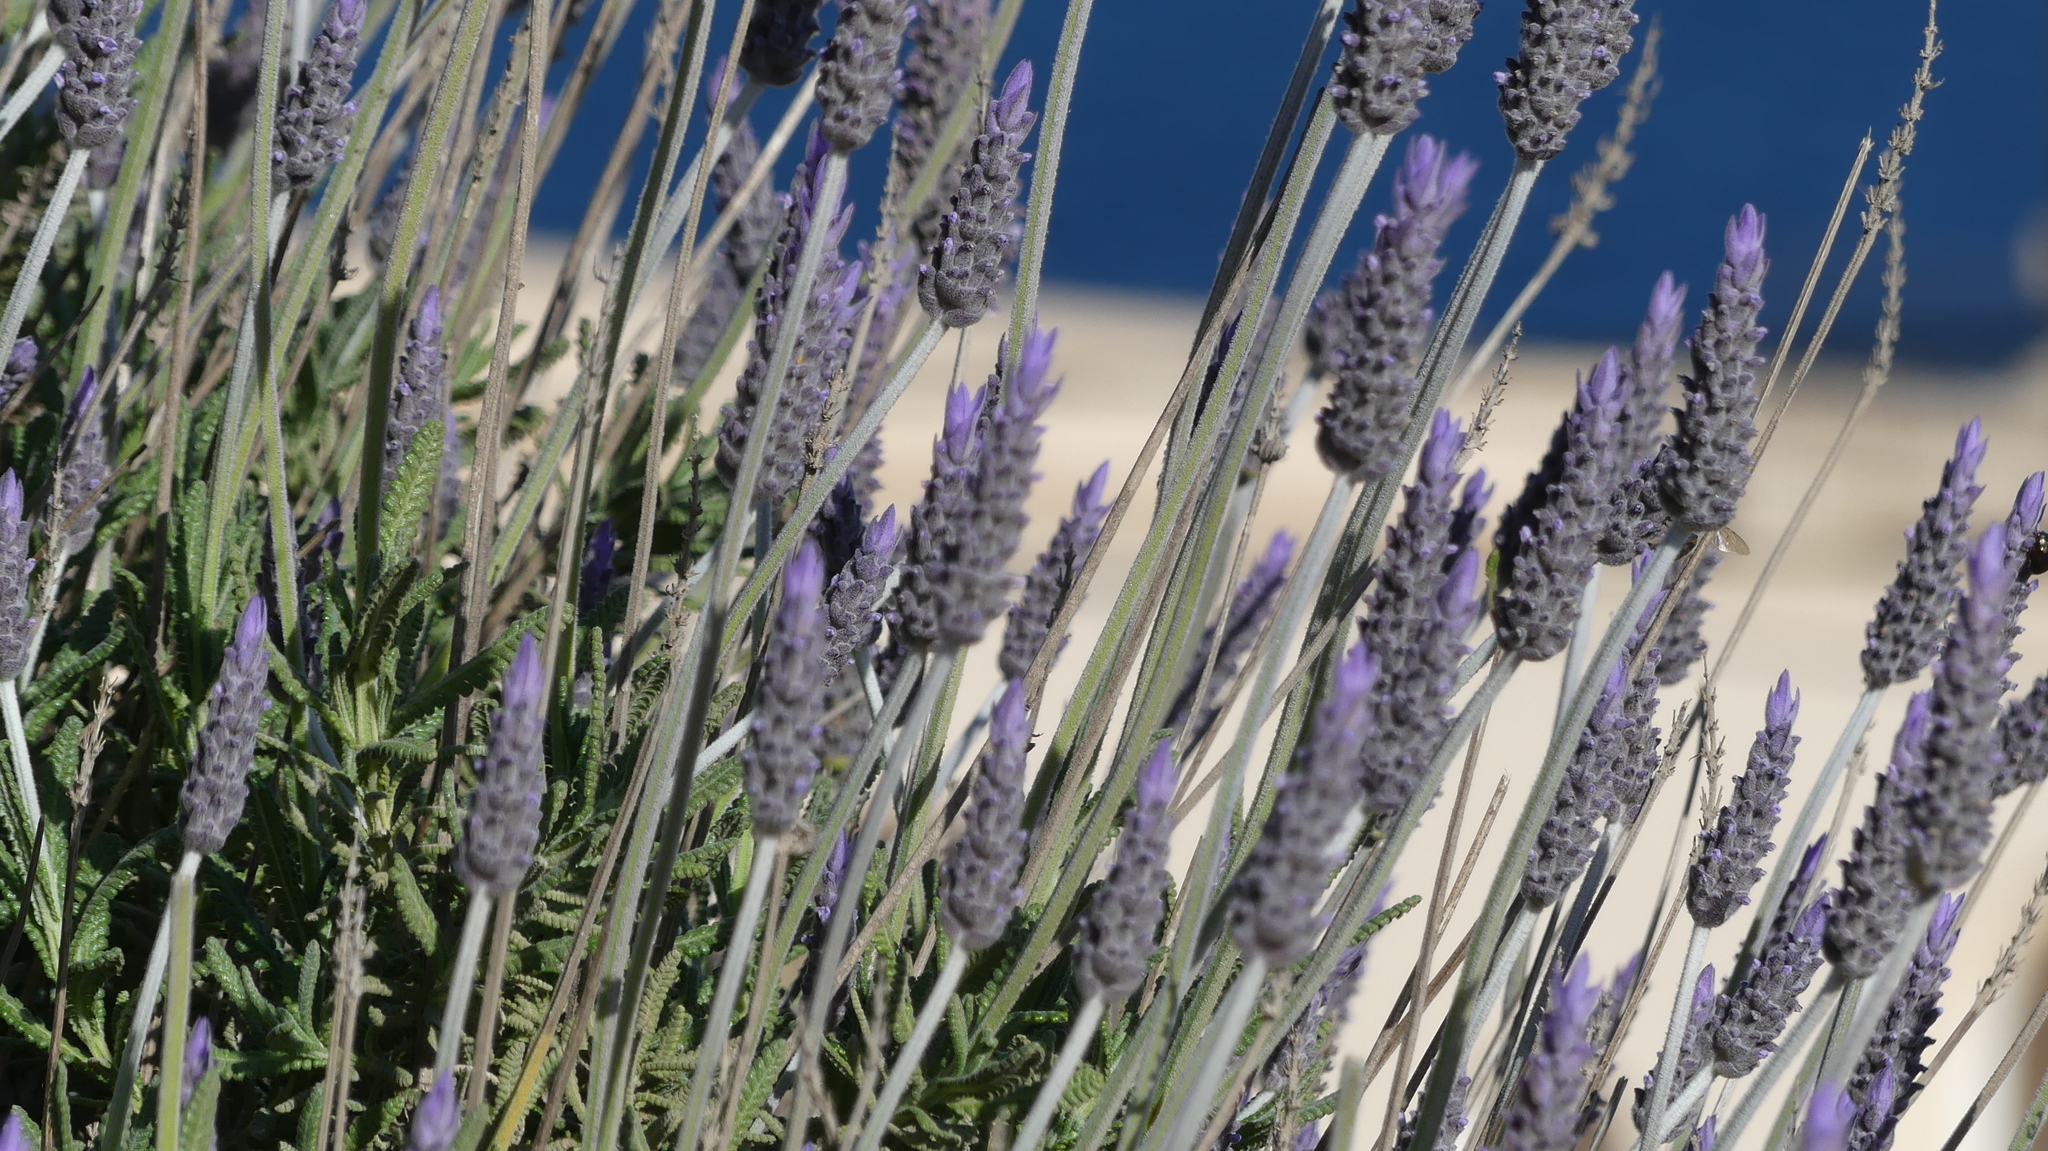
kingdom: Plantae
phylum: Tracheophyta
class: Magnoliopsida
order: Lamiales
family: Lamiaceae
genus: Lavandula
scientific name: Lavandula dentata
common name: French lavender
